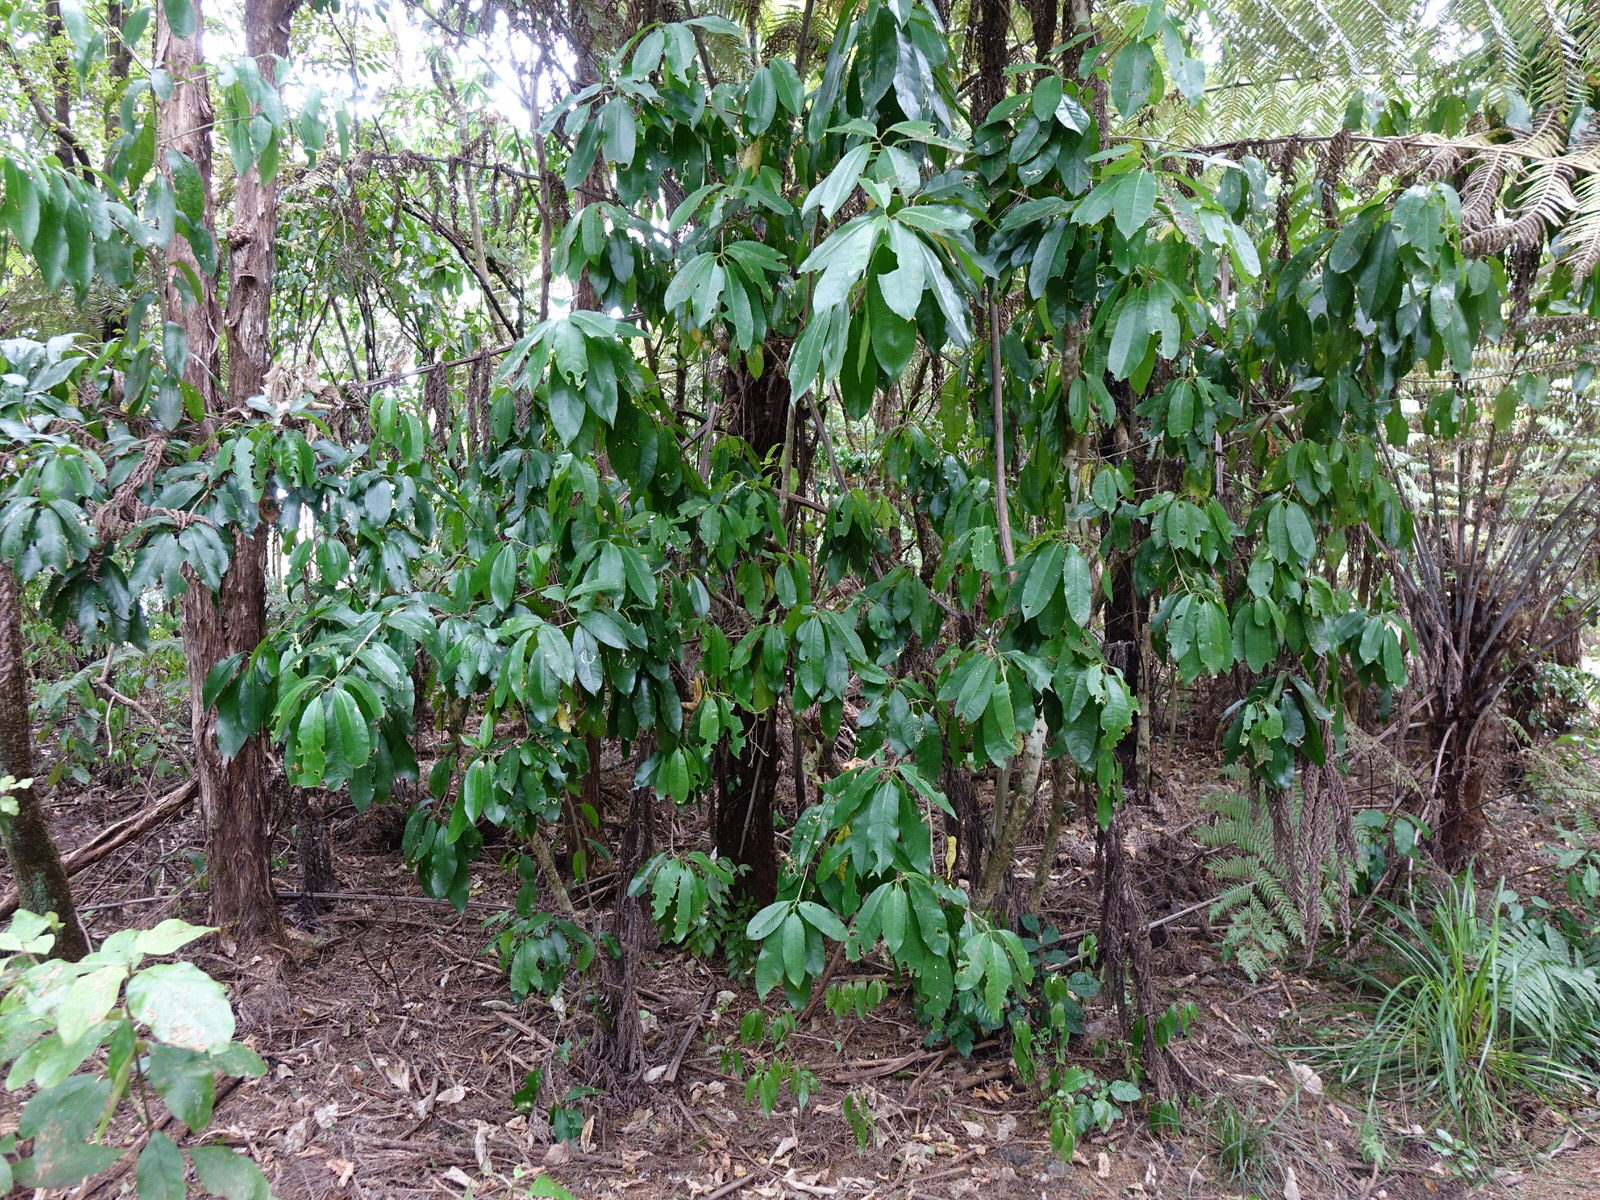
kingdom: Plantae
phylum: Tracheophyta
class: Magnoliopsida
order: Malpighiales
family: Violaceae
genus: Melicytus
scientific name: Melicytus ramiflorus
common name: Mahoe
